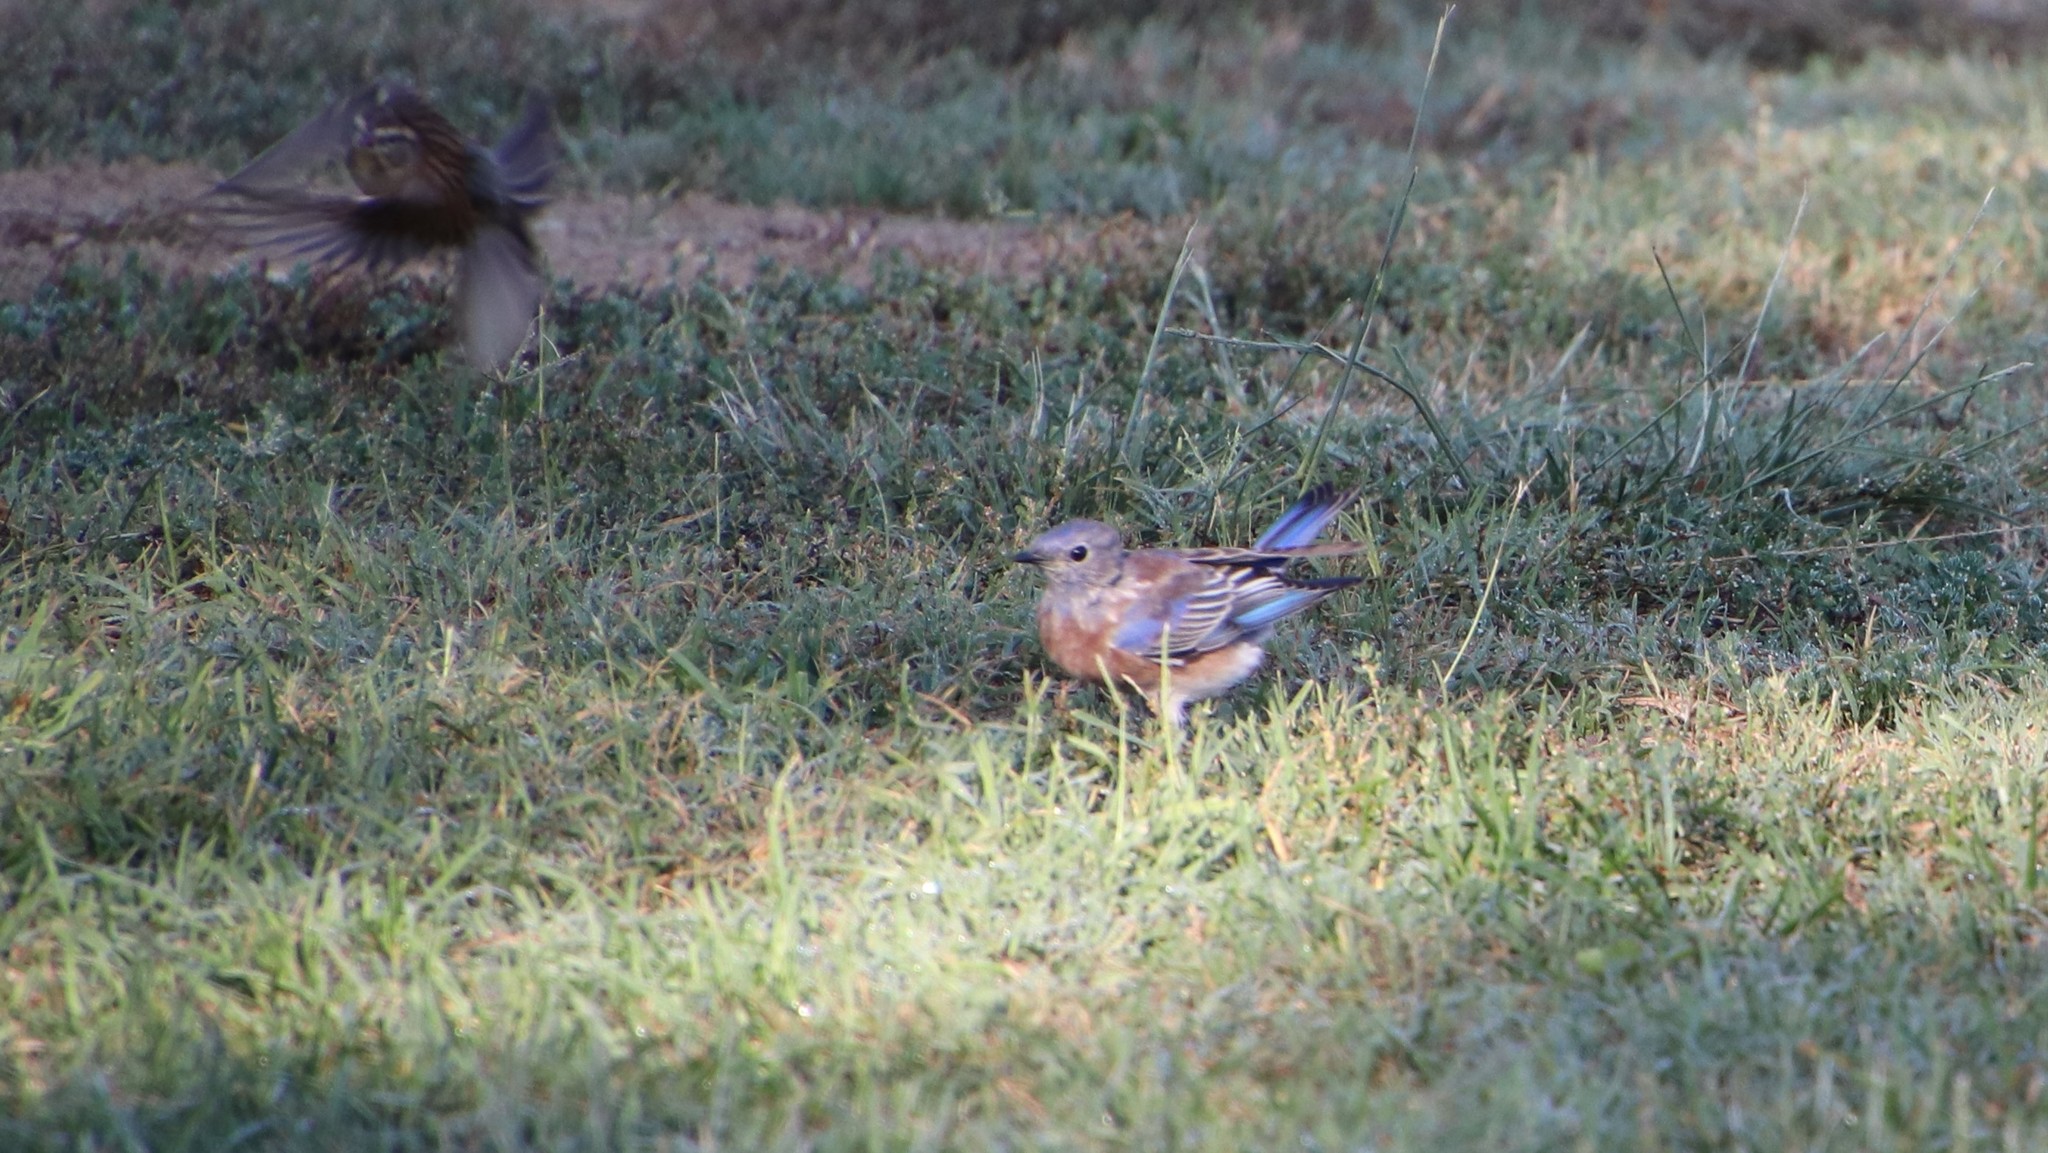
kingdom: Animalia
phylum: Chordata
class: Aves
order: Passeriformes
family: Turdidae
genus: Sialia
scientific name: Sialia mexicana
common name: Western bluebird
